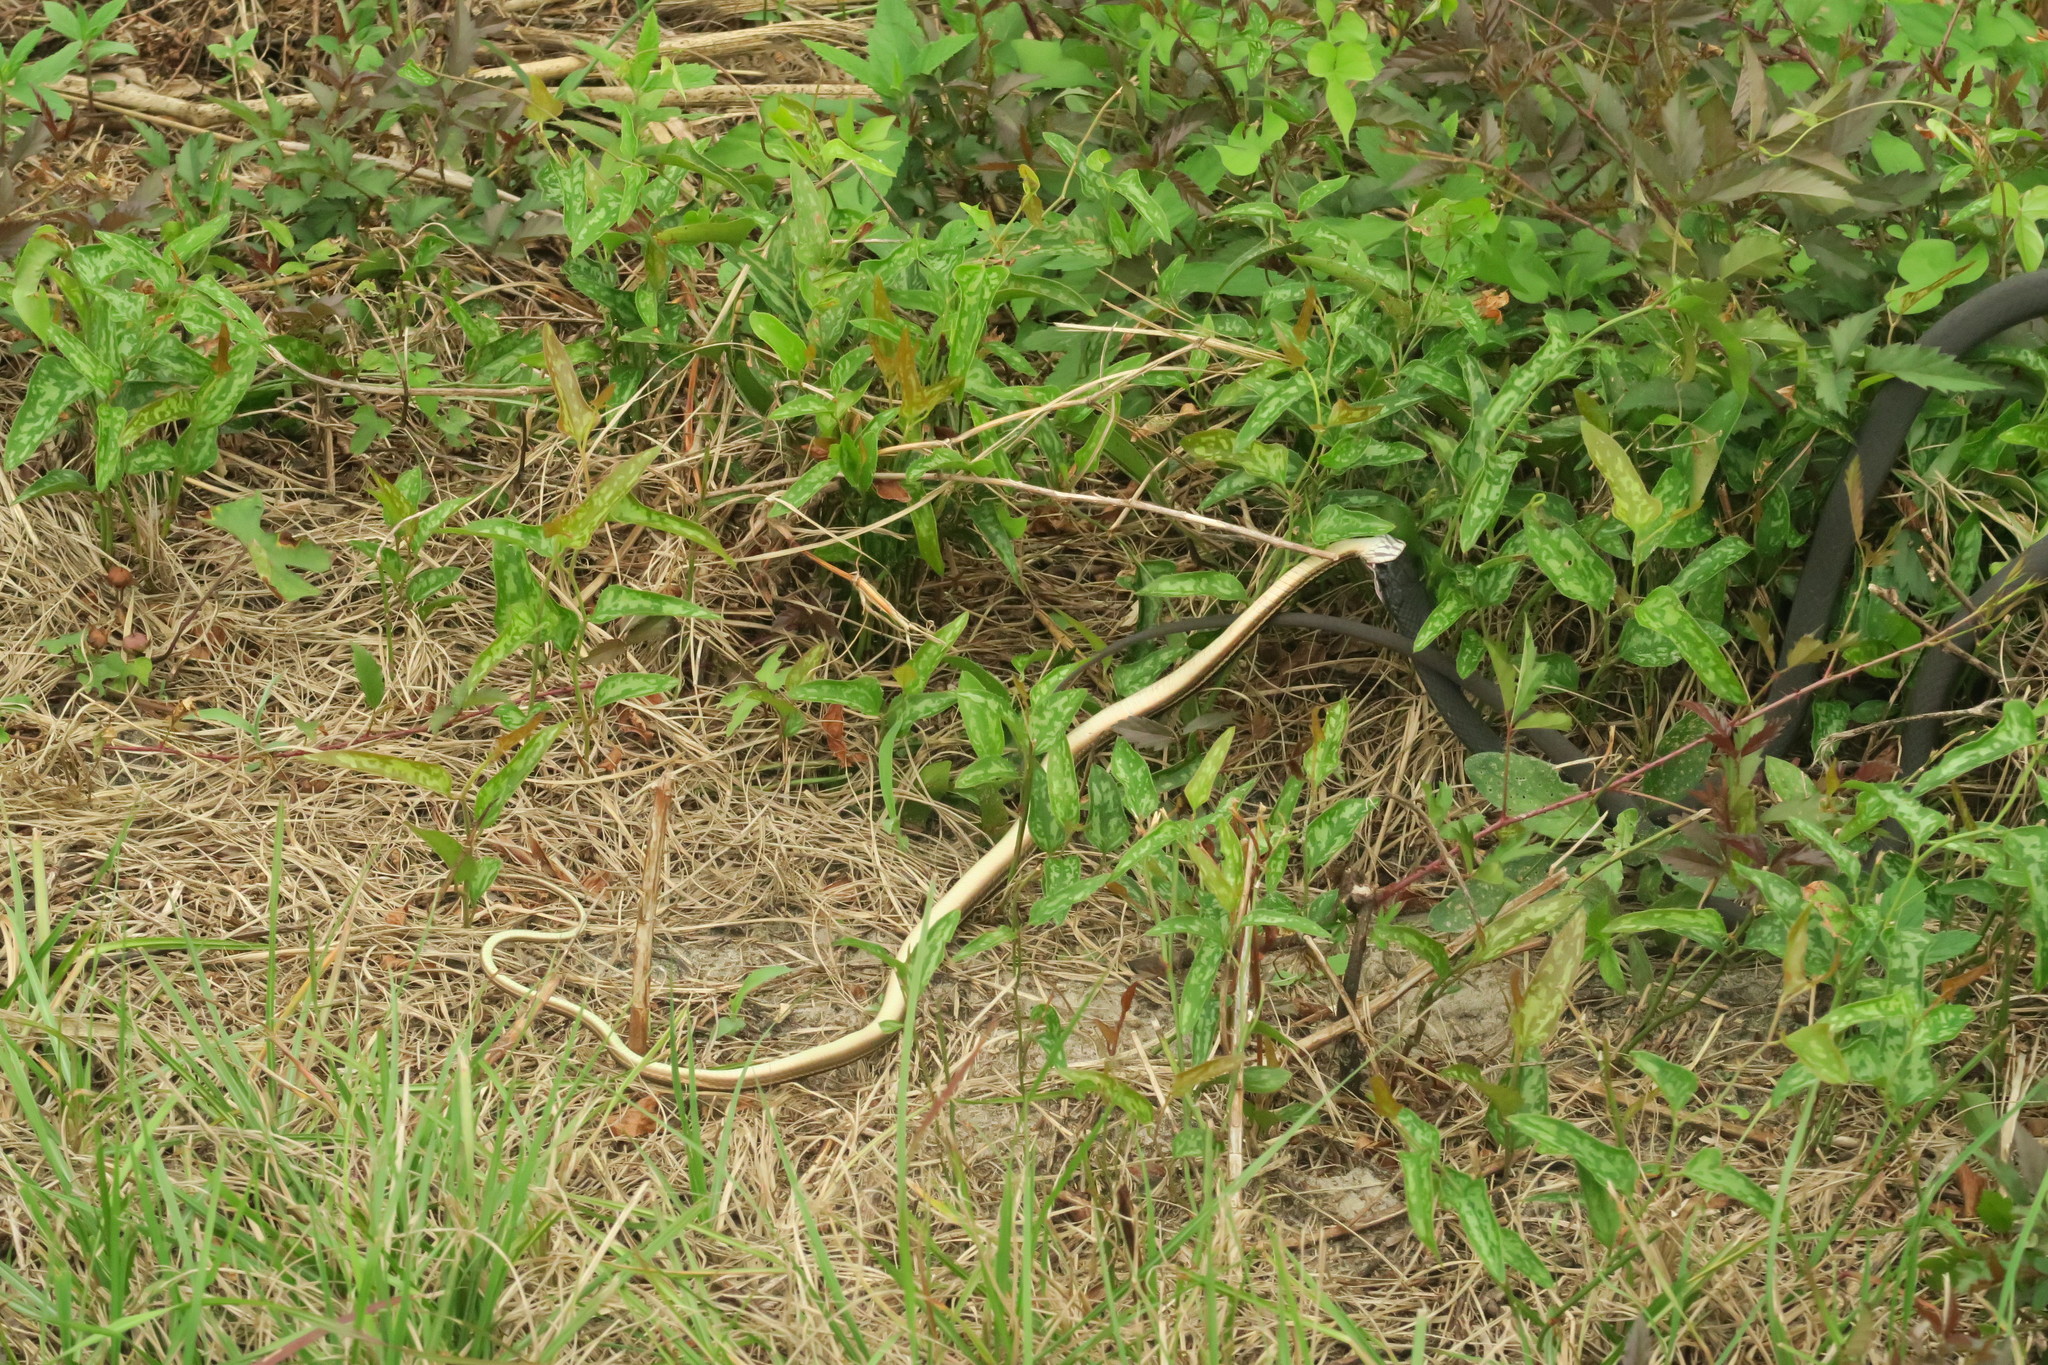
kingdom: Animalia
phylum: Chordata
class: Squamata
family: Colubridae
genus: Coluber
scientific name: Coluber constrictor
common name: Eastern racer
